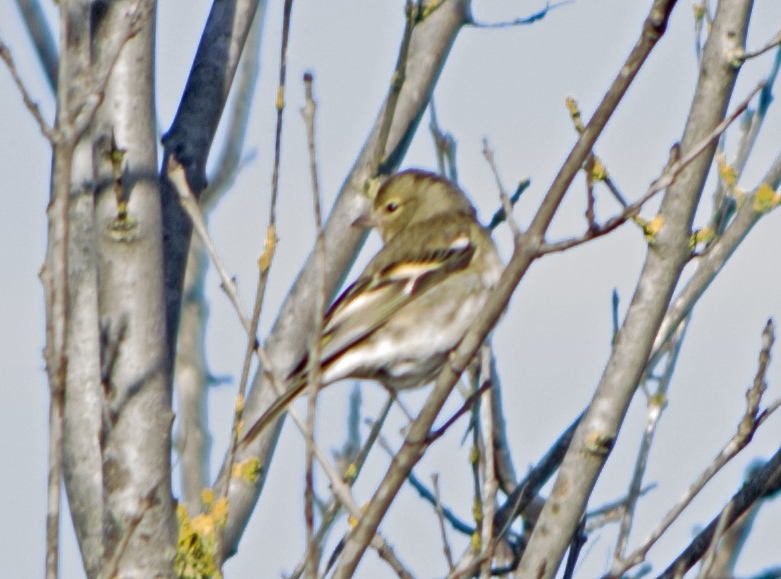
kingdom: Animalia
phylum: Chordata
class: Aves
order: Passeriformes
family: Fringillidae
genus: Fringilla
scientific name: Fringilla coelebs
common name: Common chaffinch
